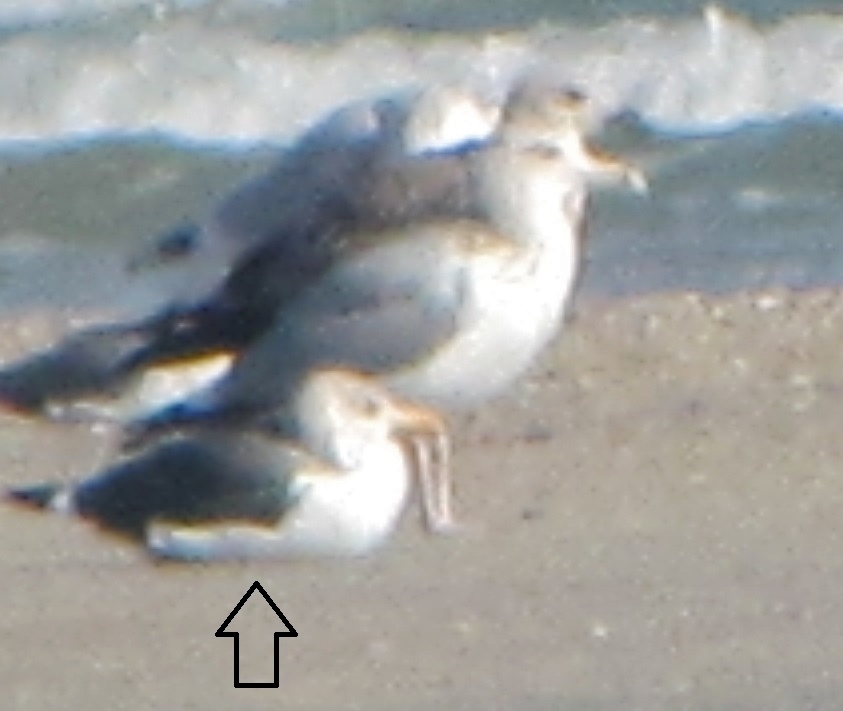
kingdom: Animalia
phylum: Chordata
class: Aves
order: Charadriiformes
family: Laridae
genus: Larus
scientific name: Larus fuscus
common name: Lesser black-backed gull
